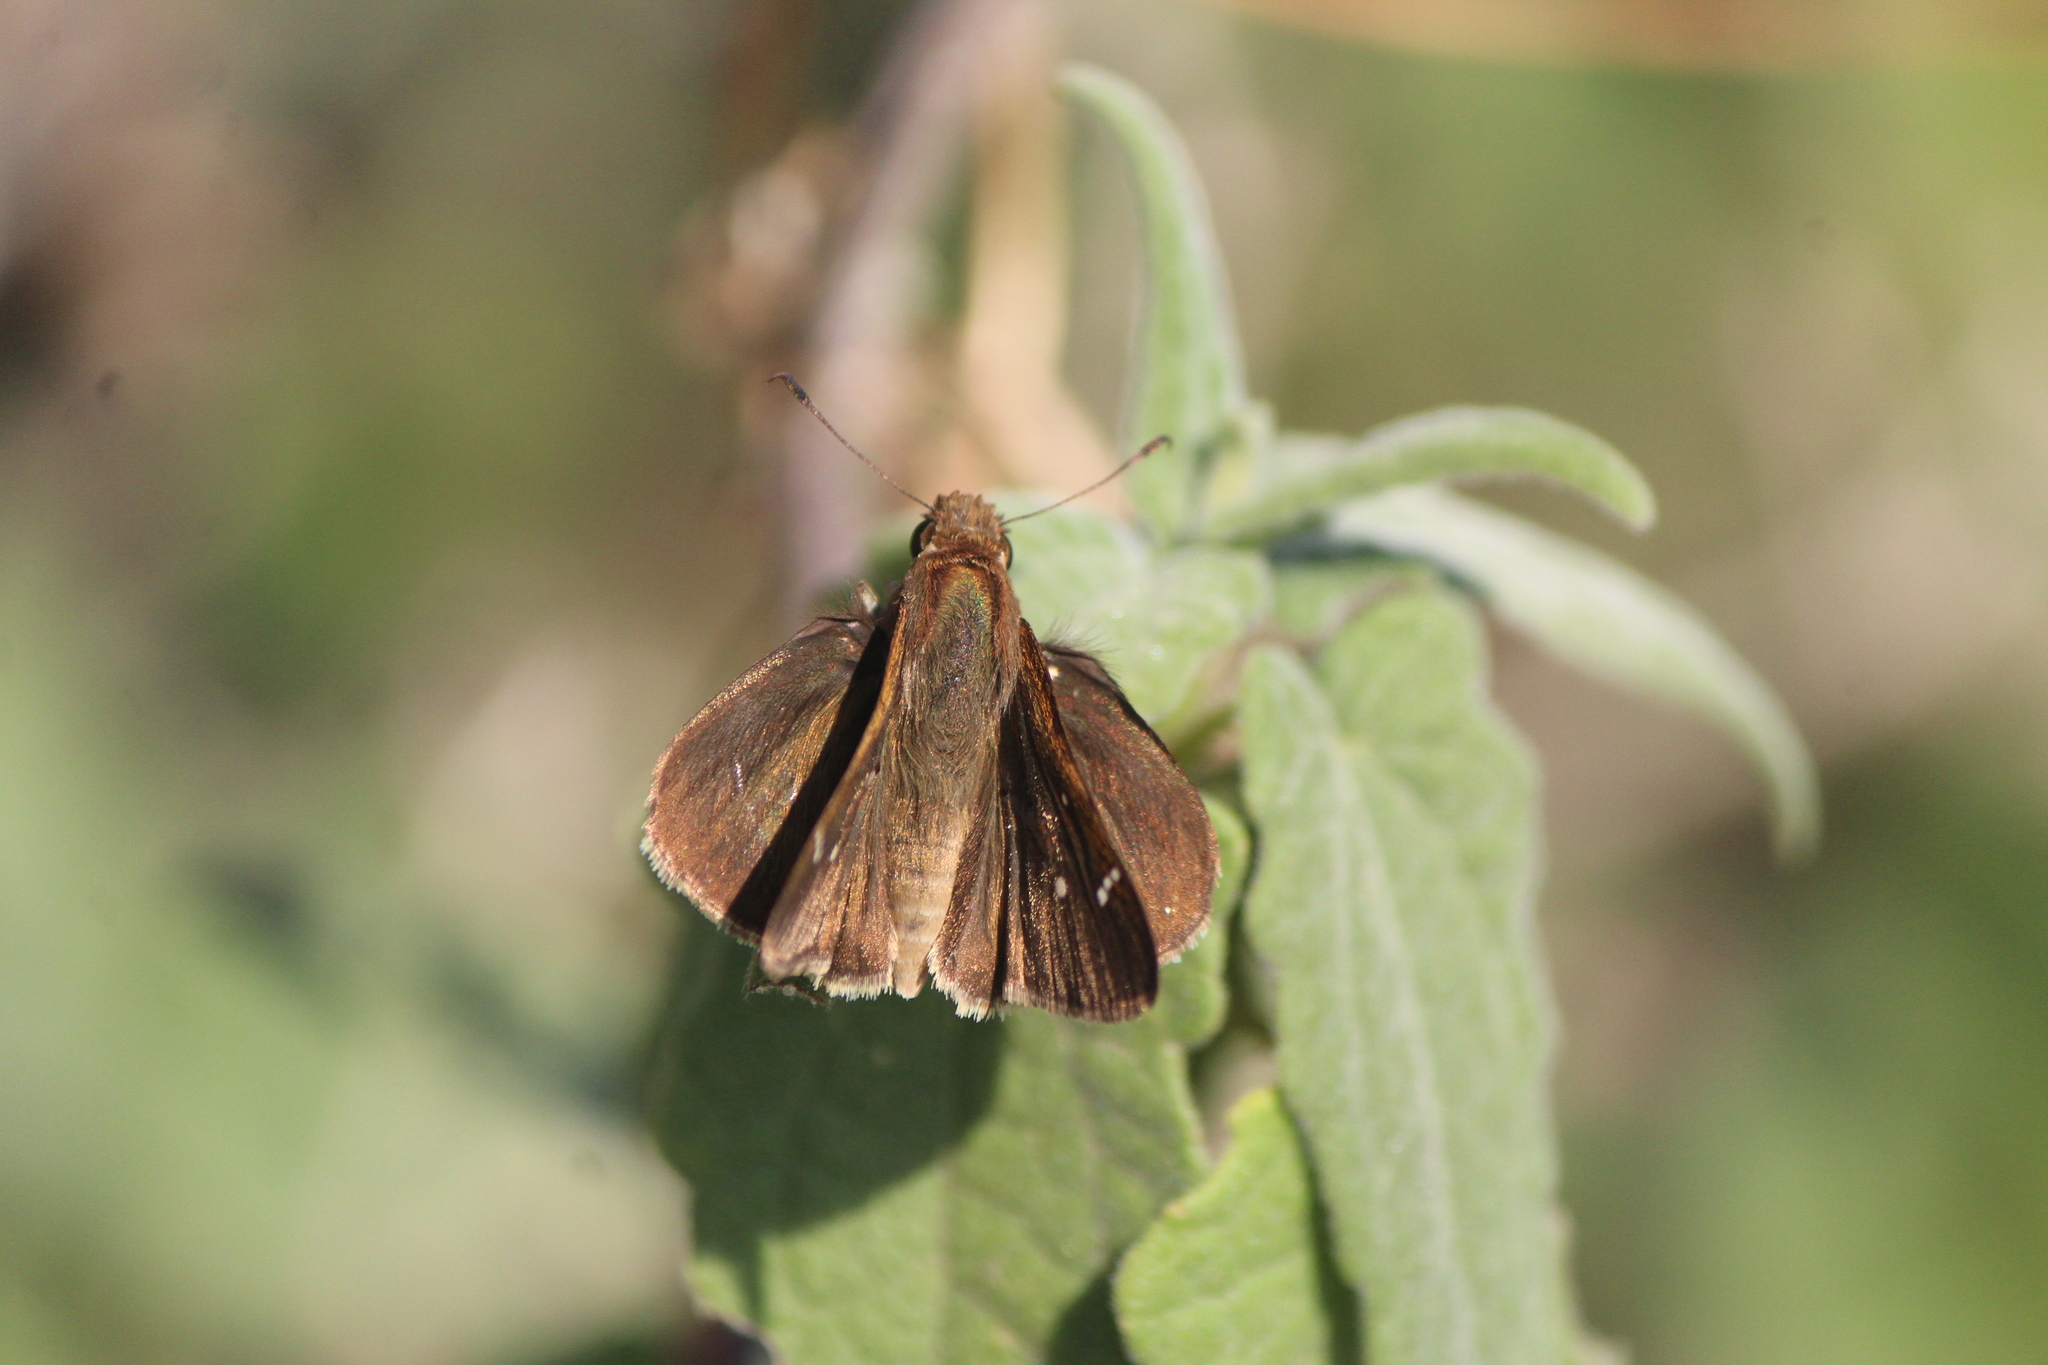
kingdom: Animalia
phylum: Arthropoda
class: Insecta
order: Lepidoptera
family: Hesperiidae
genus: Lerema
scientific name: Lerema accius
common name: Clouded skipper
